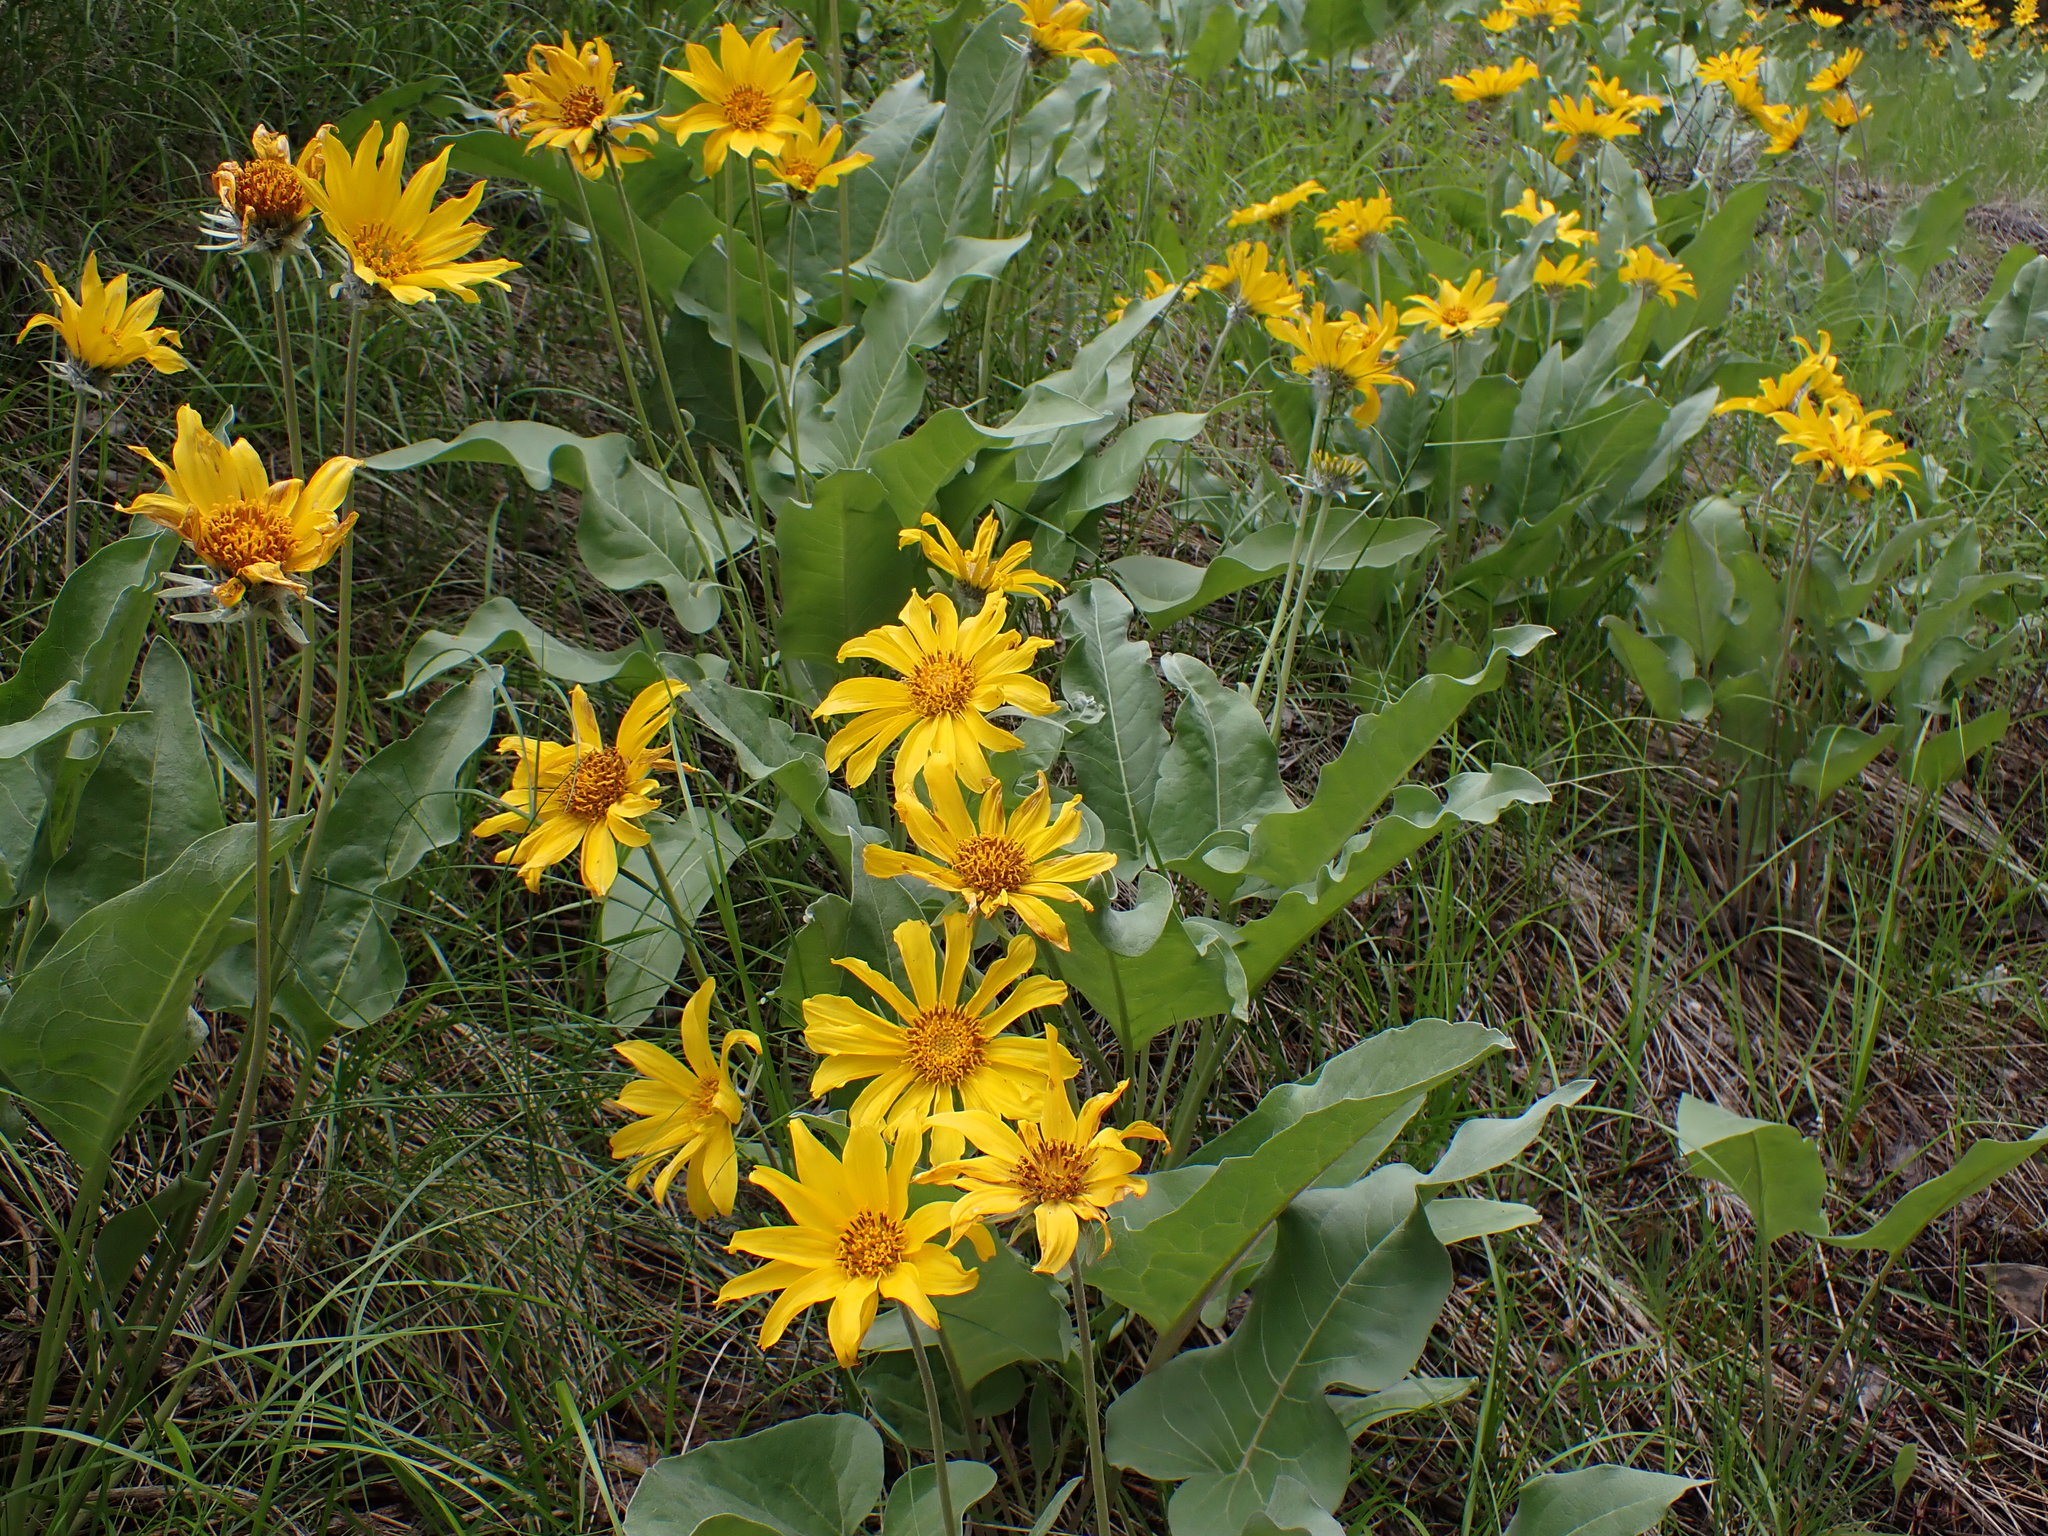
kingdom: Plantae
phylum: Tracheophyta
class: Magnoliopsida
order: Asterales
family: Asteraceae
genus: Wyethia
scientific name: Wyethia sagittata
